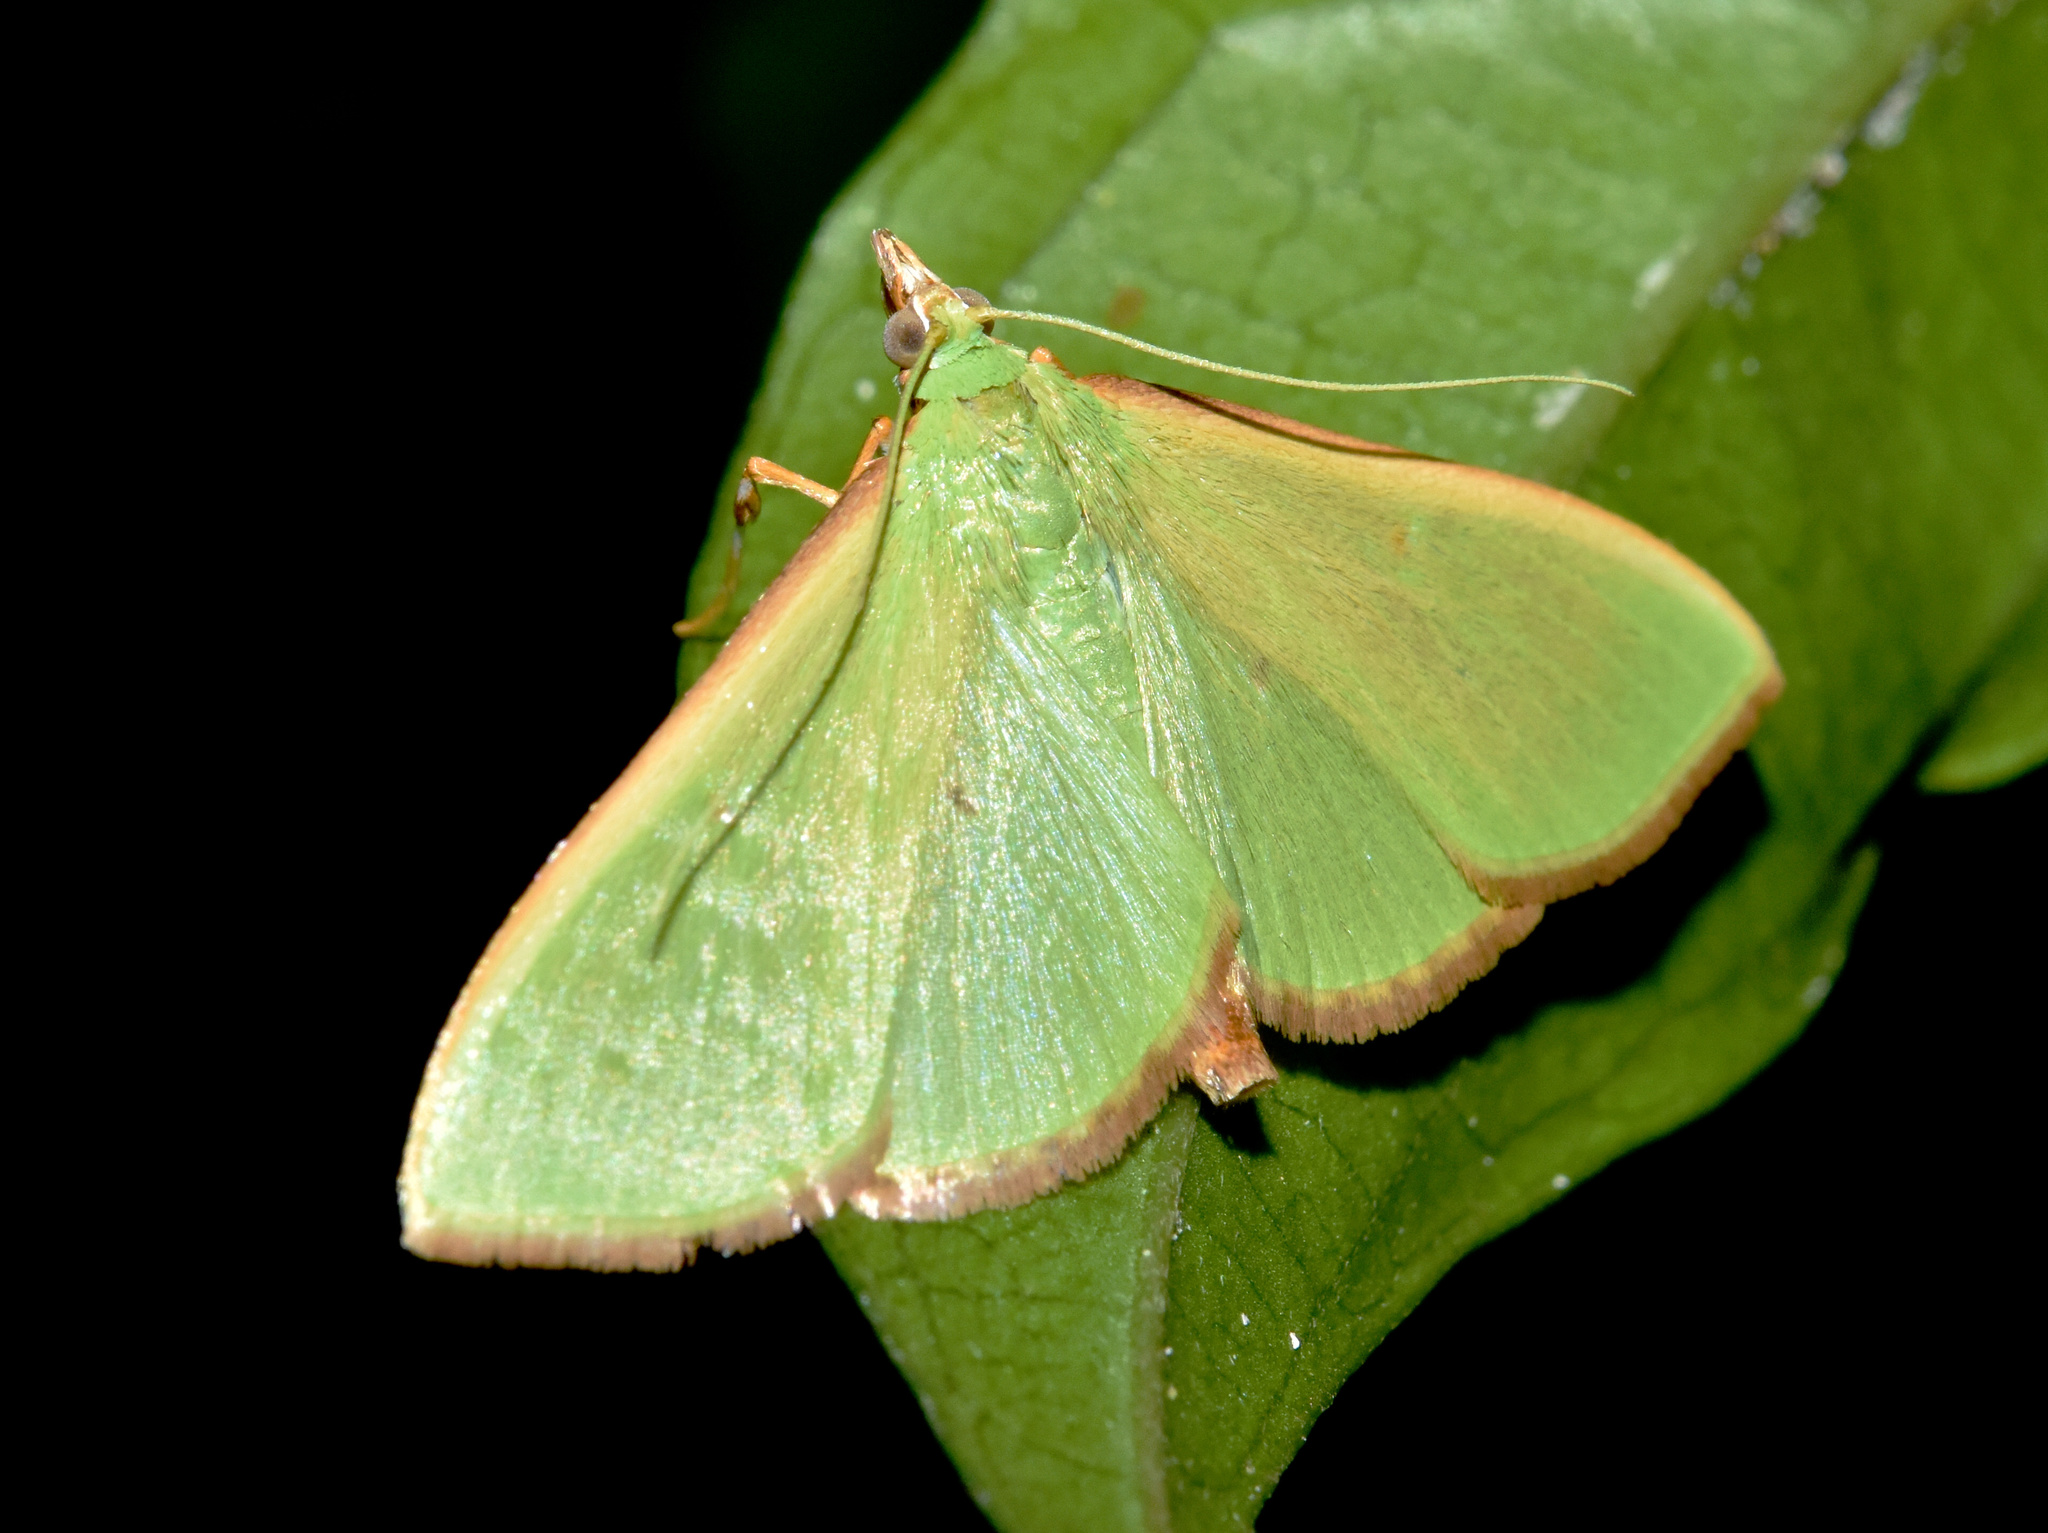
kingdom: Animalia
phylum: Arthropoda
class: Insecta
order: Lepidoptera
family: Crambidae
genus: Parotis
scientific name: Parotis baldersalis
